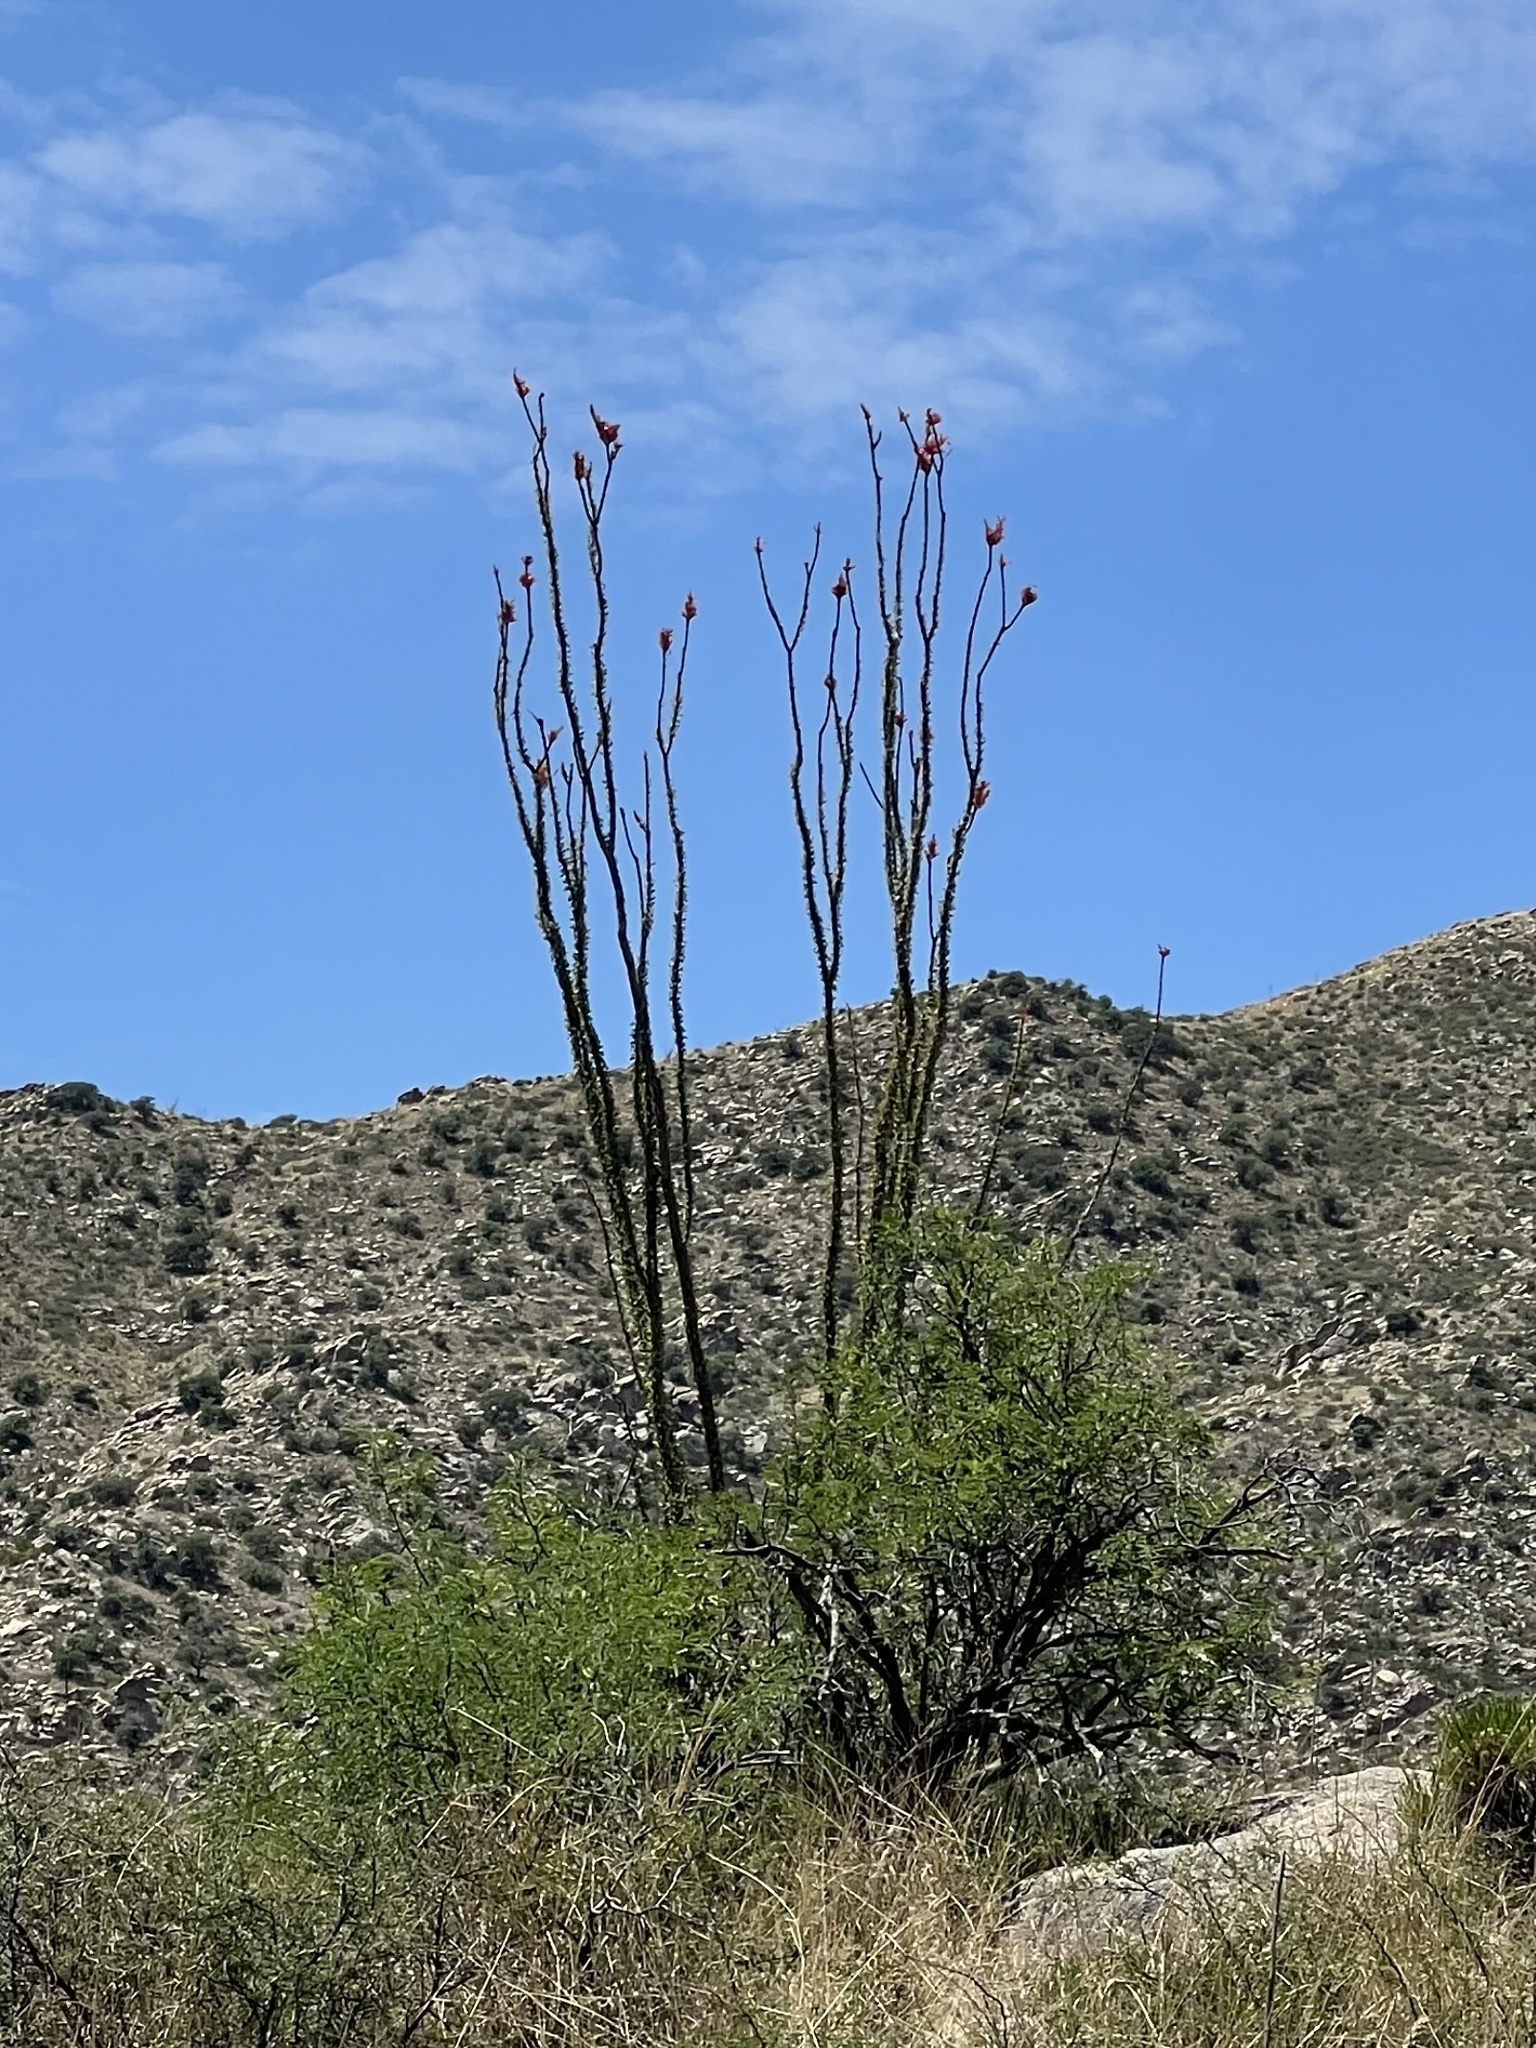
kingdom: Plantae
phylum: Tracheophyta
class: Magnoliopsida
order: Ericales
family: Fouquieriaceae
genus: Fouquieria
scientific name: Fouquieria splendens
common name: Vine-cactus
